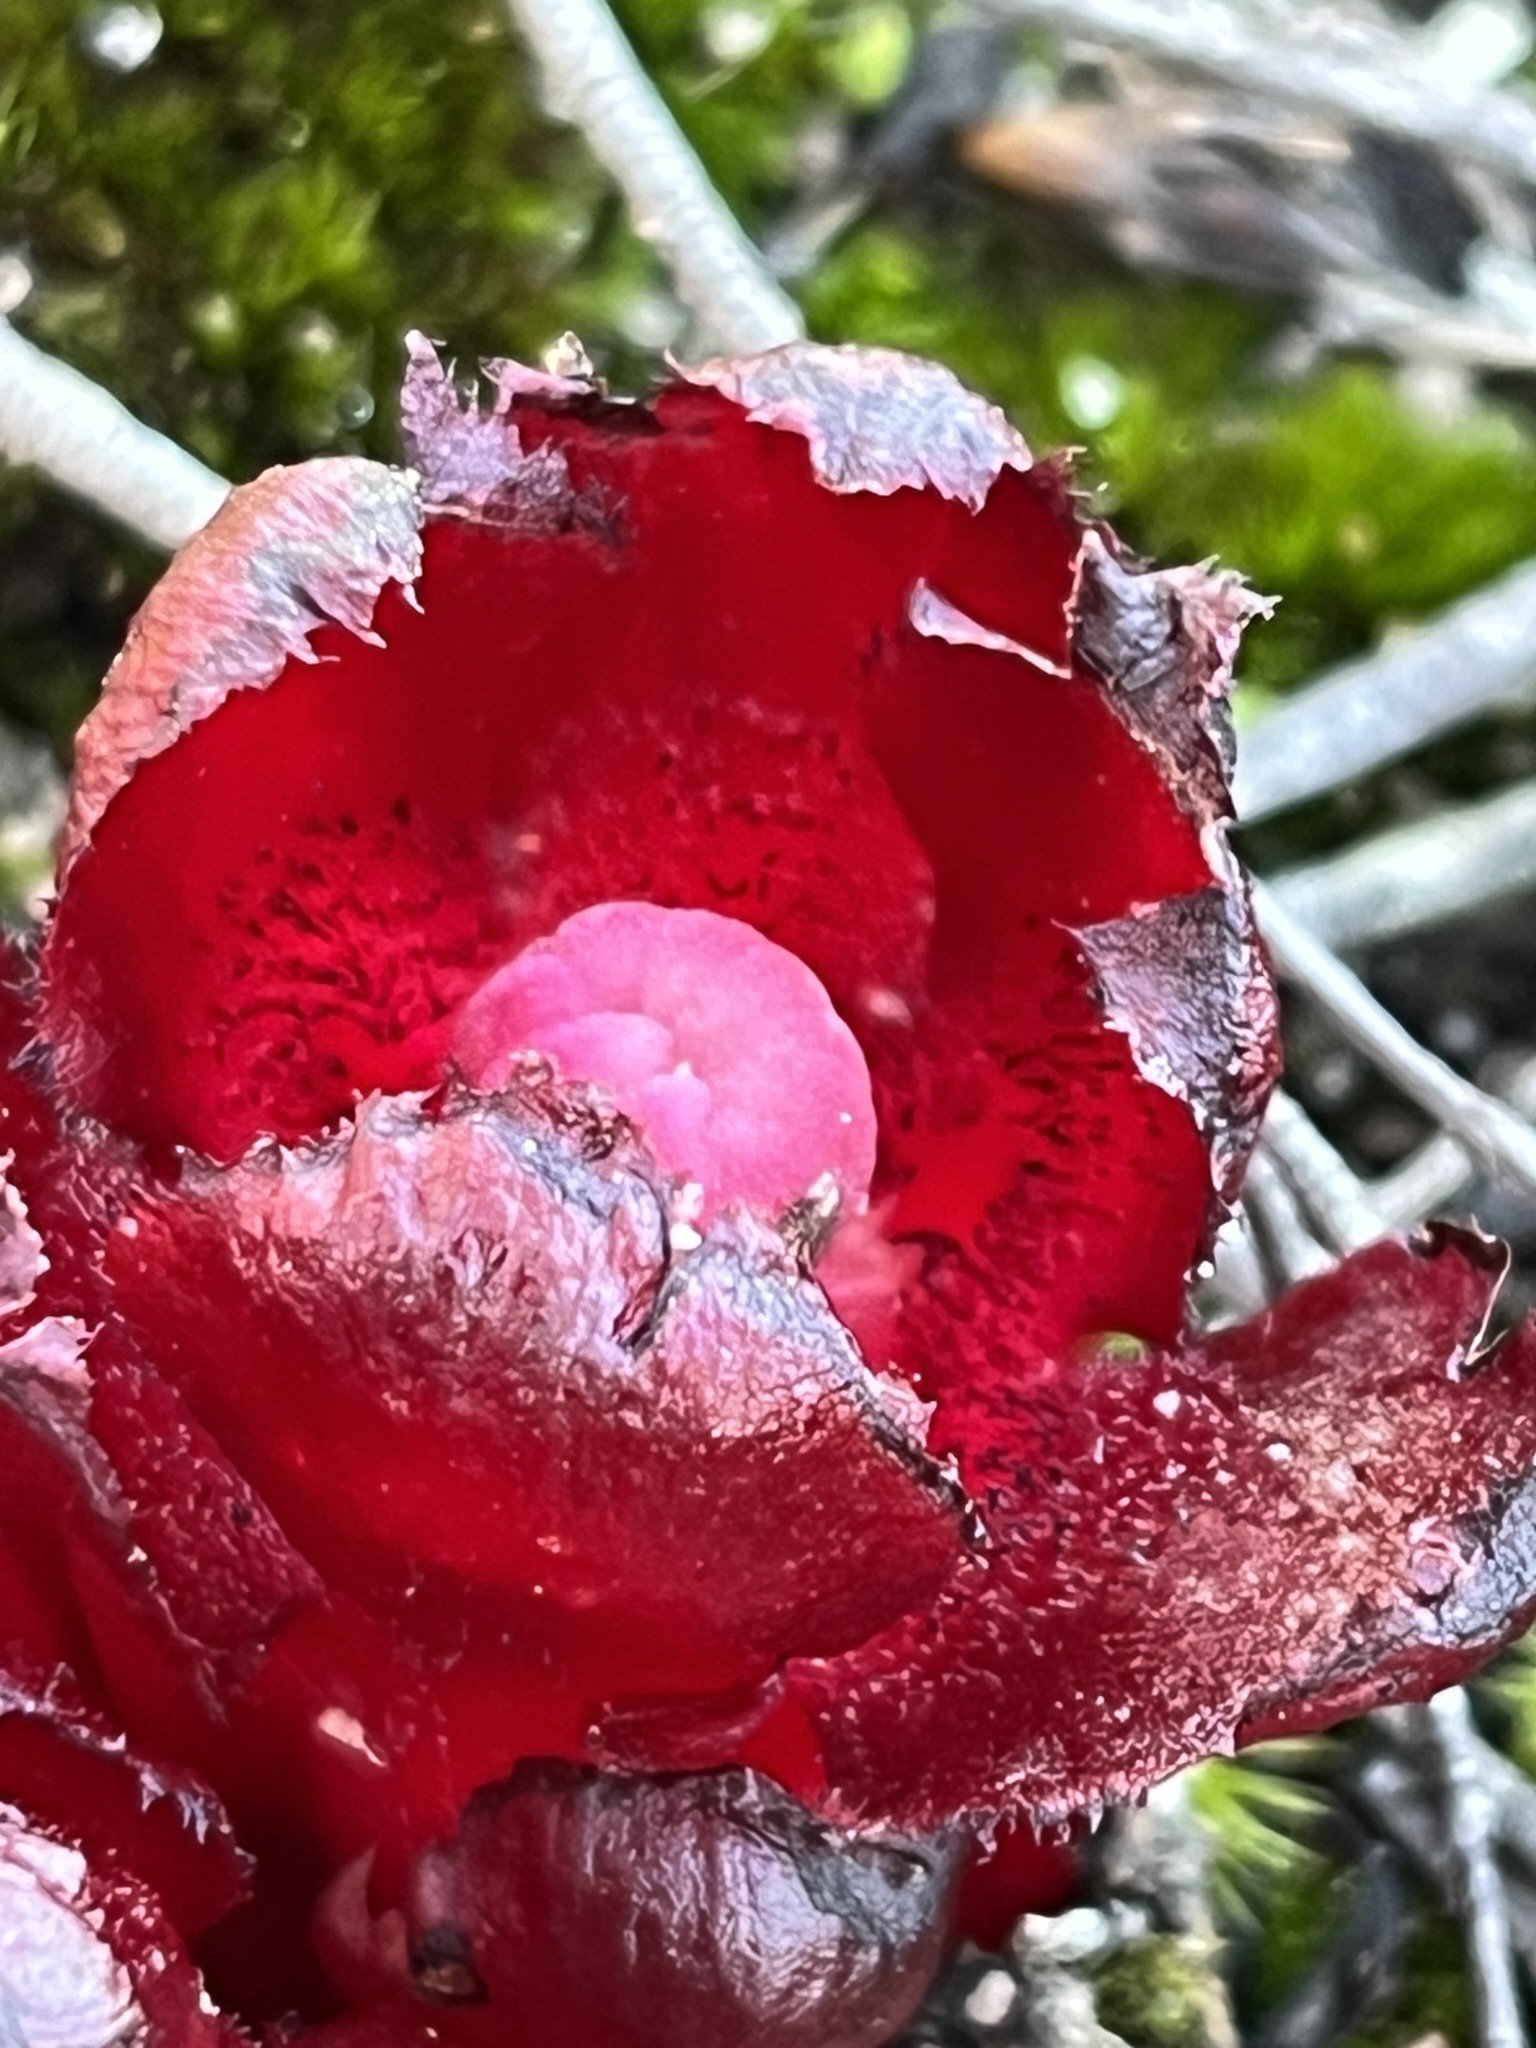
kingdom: Plantae
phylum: Tracheophyta
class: Magnoliopsida
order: Malvales
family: Cytinaceae
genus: Cytinus
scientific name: Cytinus sanguineus
